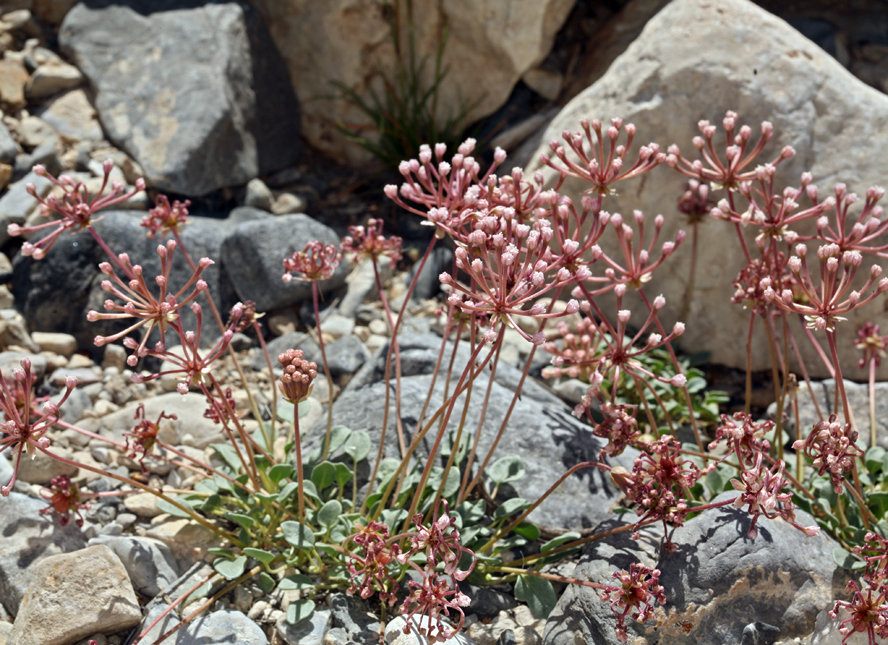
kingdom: Plantae
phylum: Tracheophyta
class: Magnoliopsida
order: Caryophyllales
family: Nyctaginaceae
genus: Abronia
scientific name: Abronia nana
